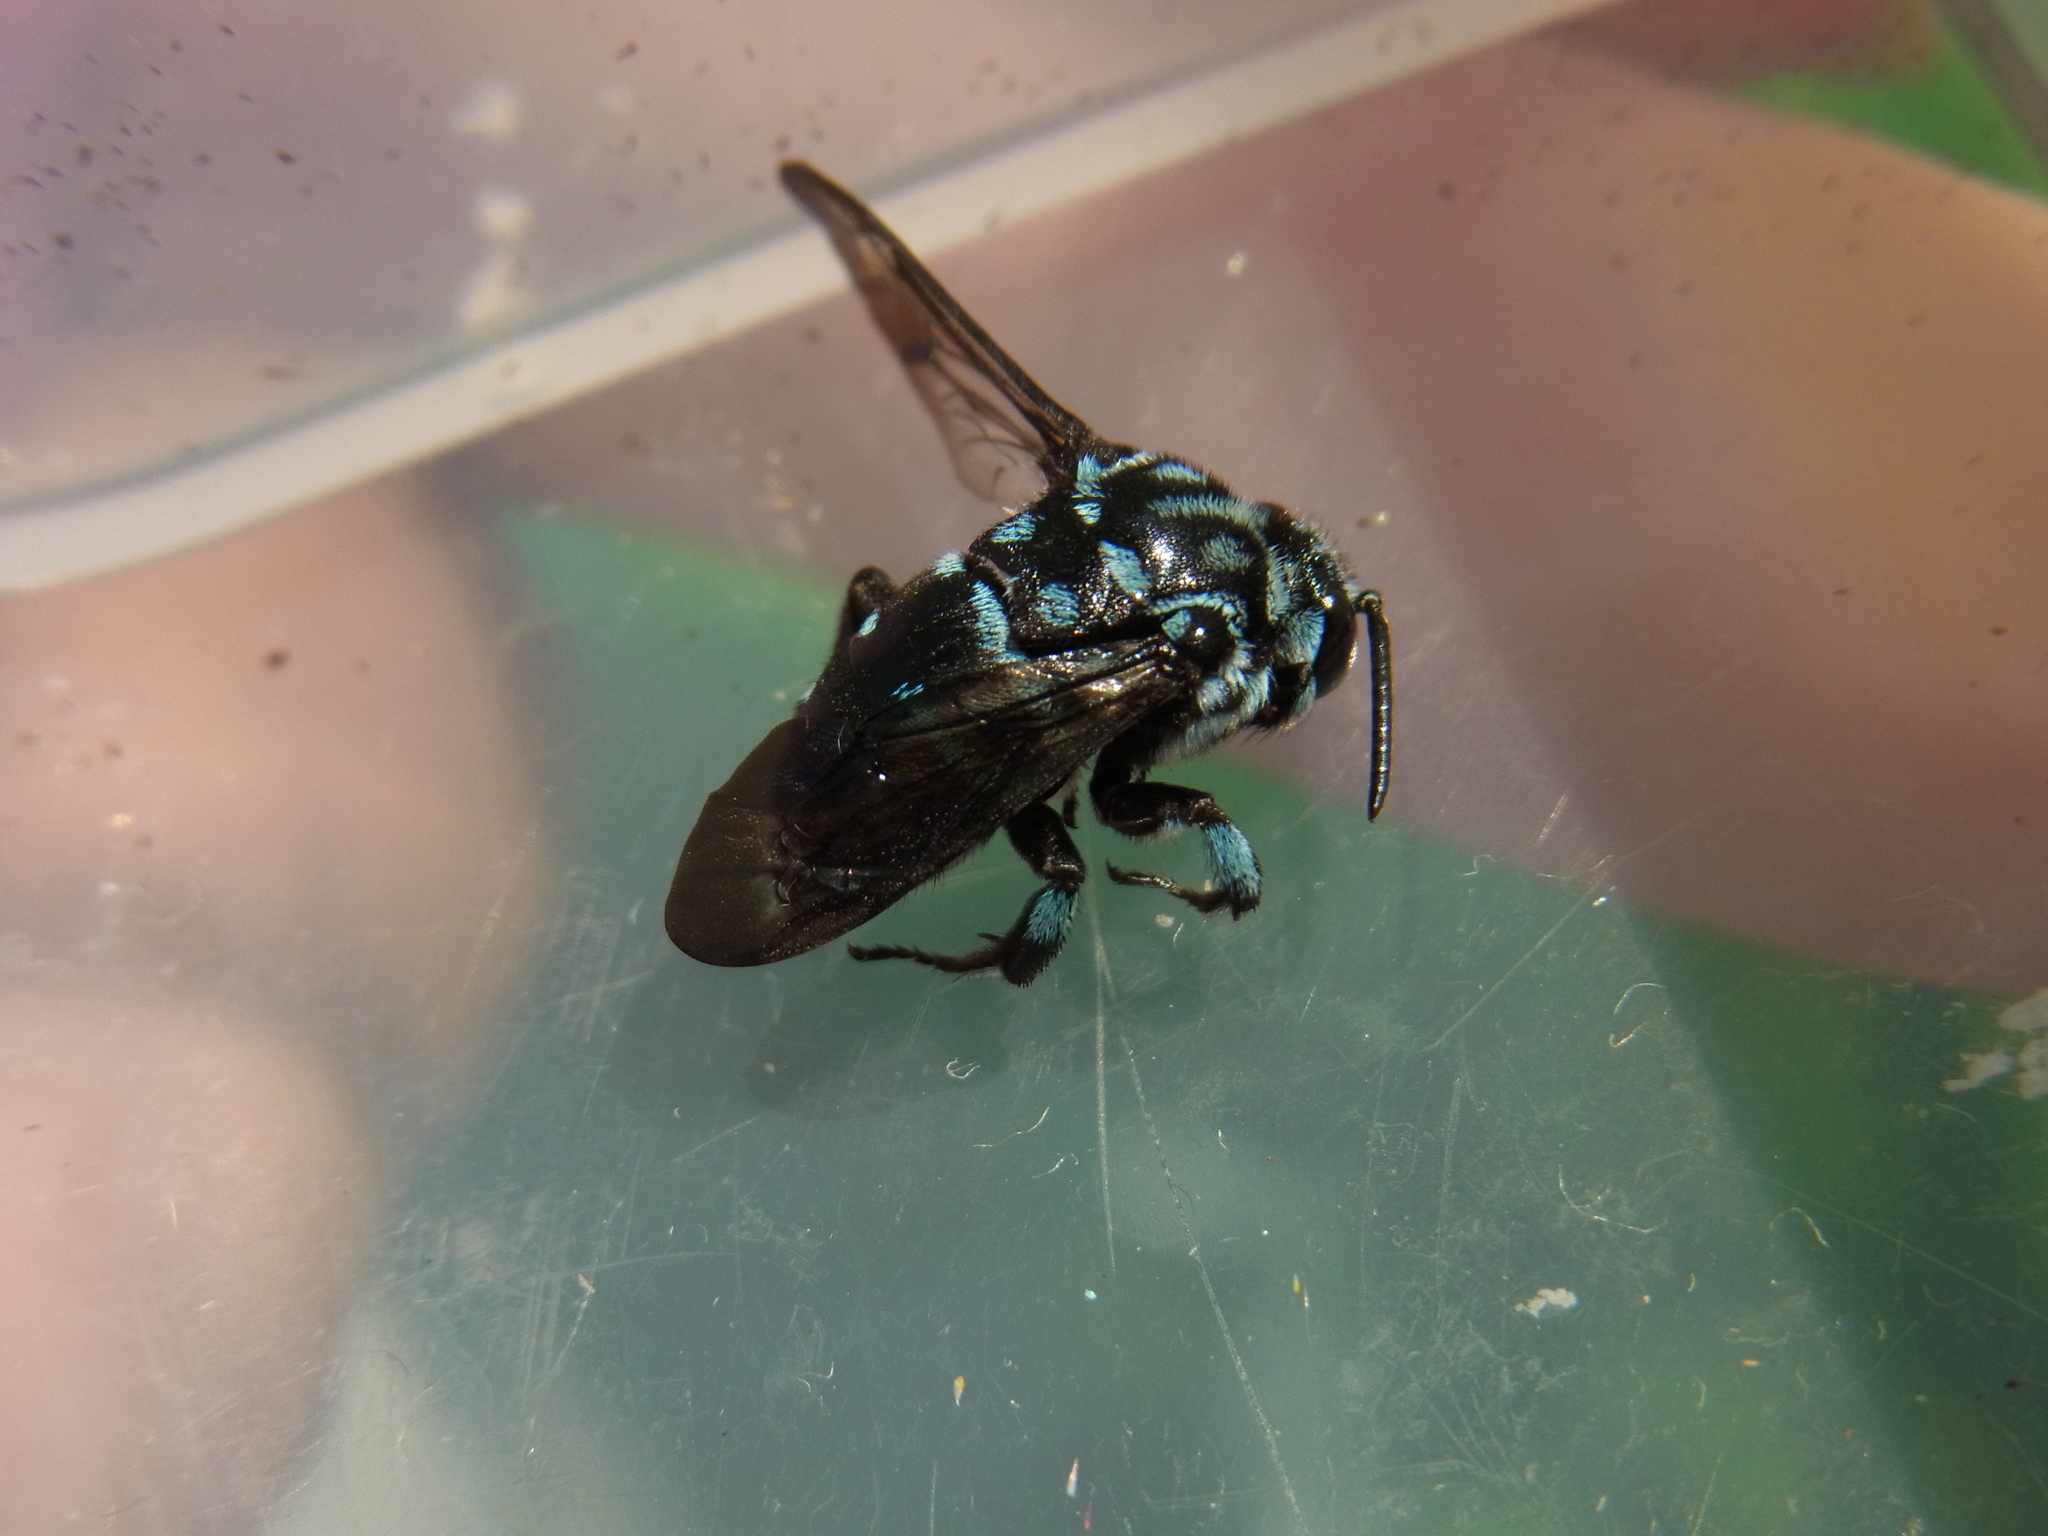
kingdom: Animalia
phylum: Arthropoda
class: Insecta
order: Hymenoptera
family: Apidae
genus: Thyreus
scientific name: Thyreus decorus
